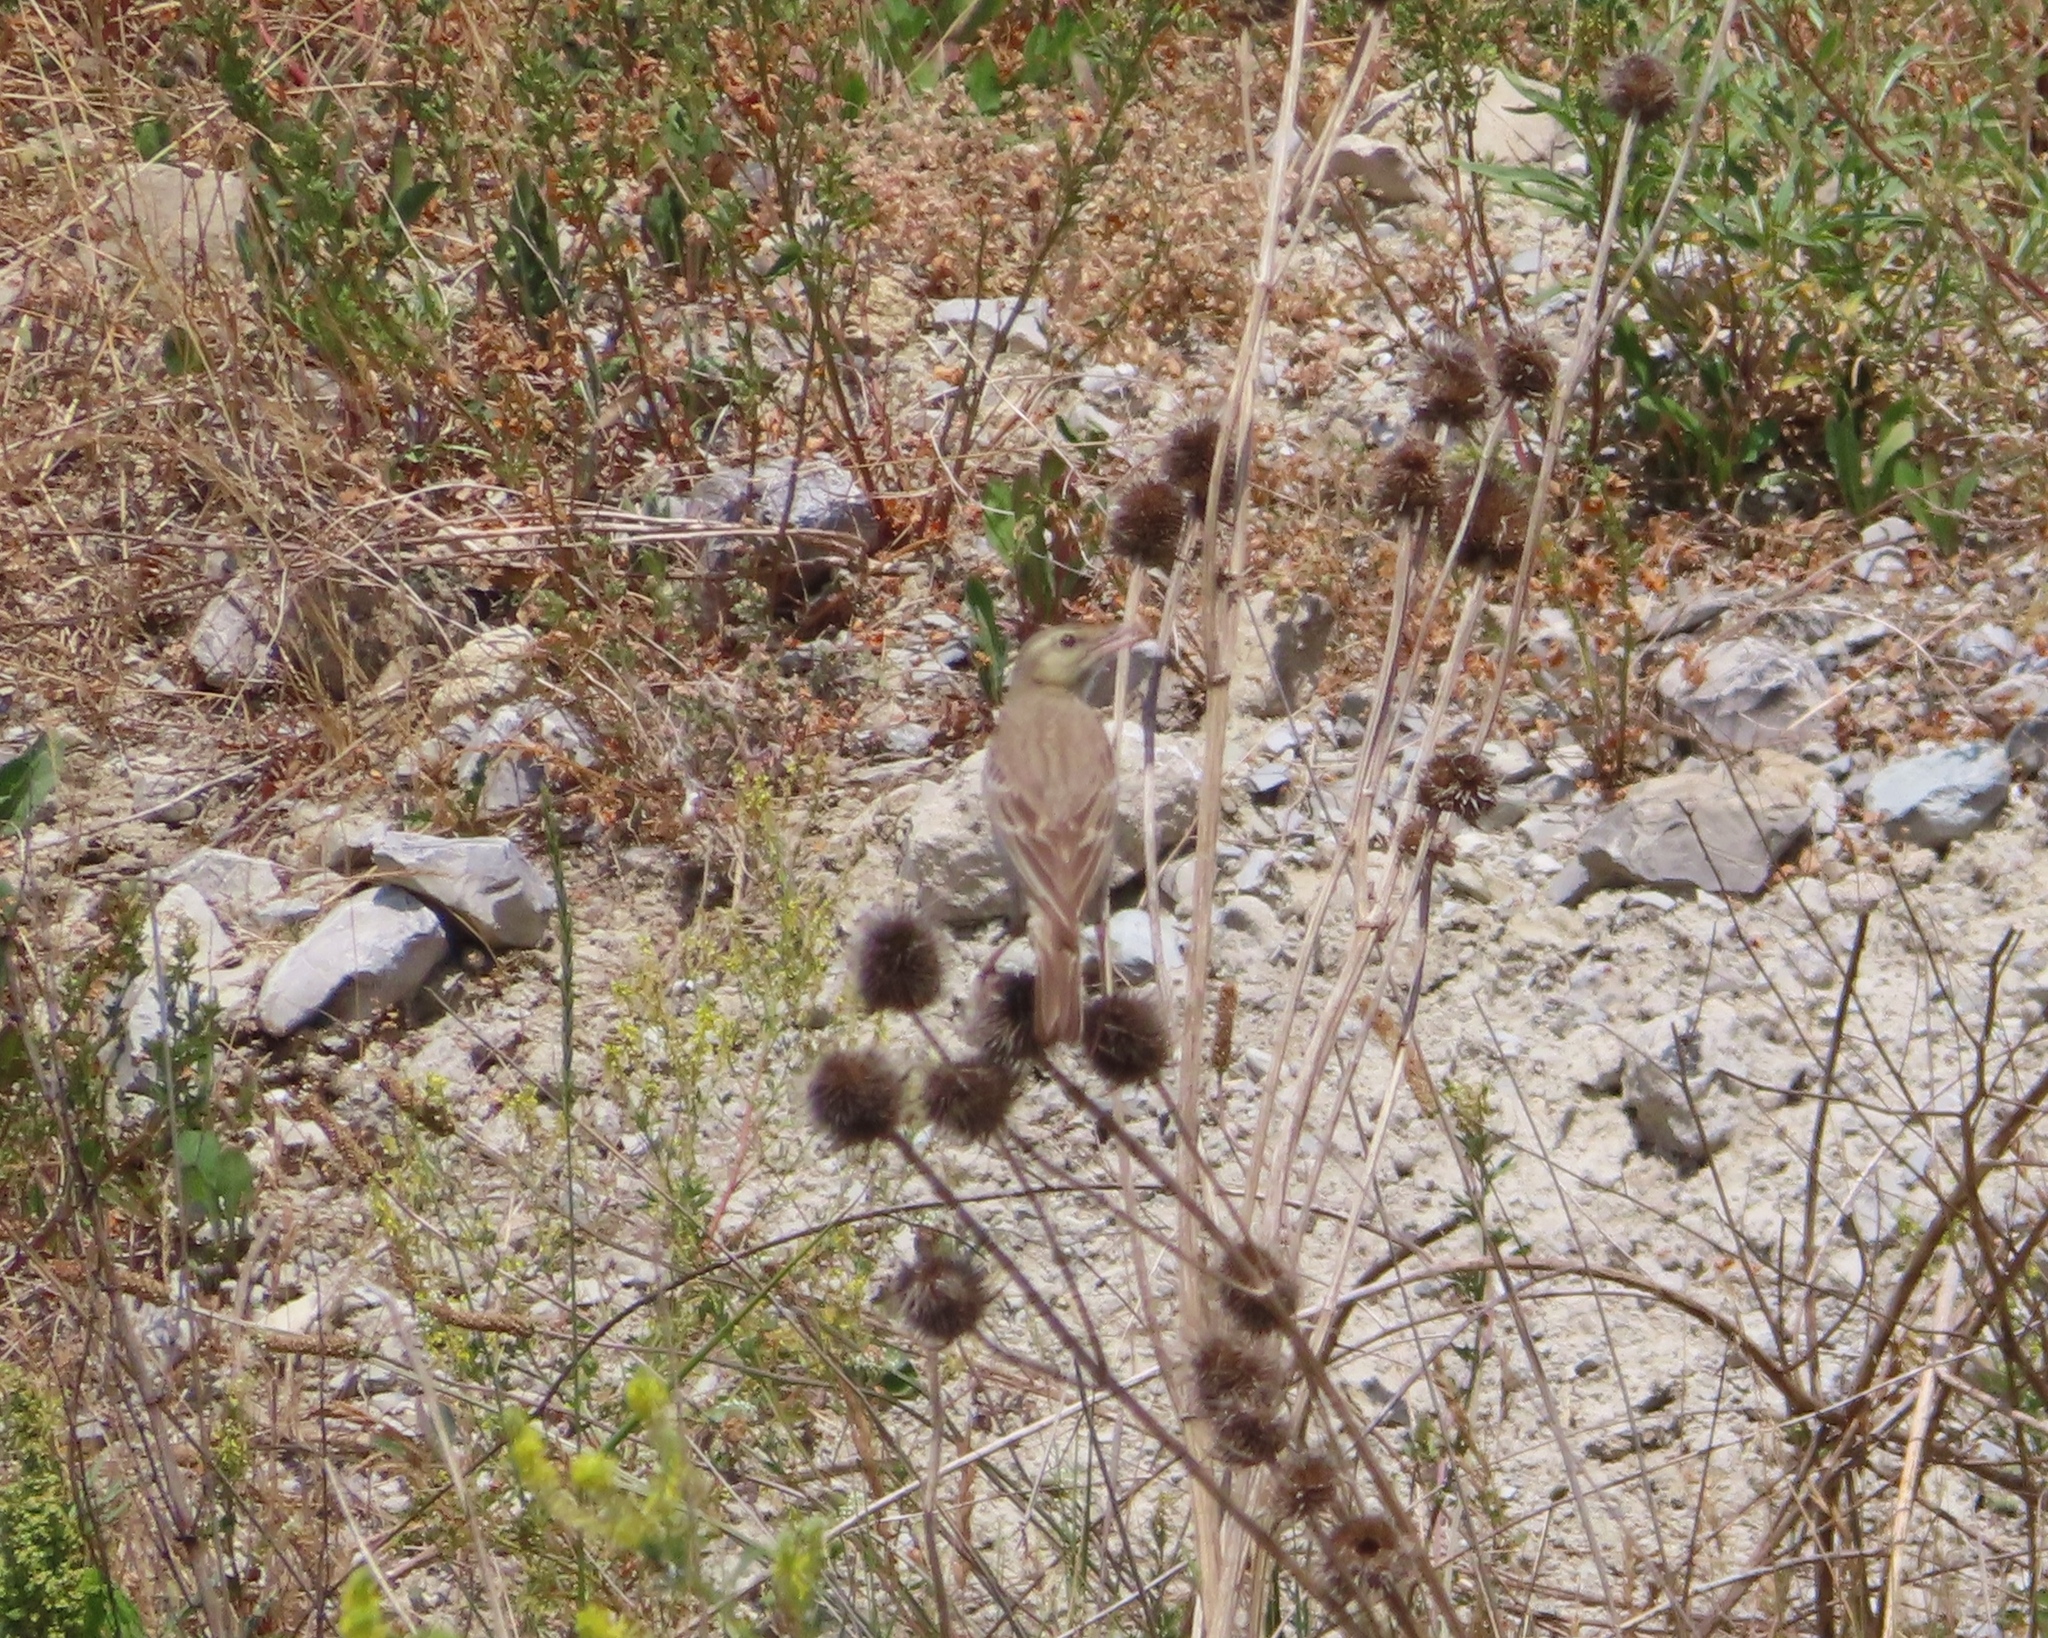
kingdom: Animalia
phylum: Chordata
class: Aves
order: Passeriformes
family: Motacillidae
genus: Anthus
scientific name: Anthus campestris
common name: Tawny pipit
